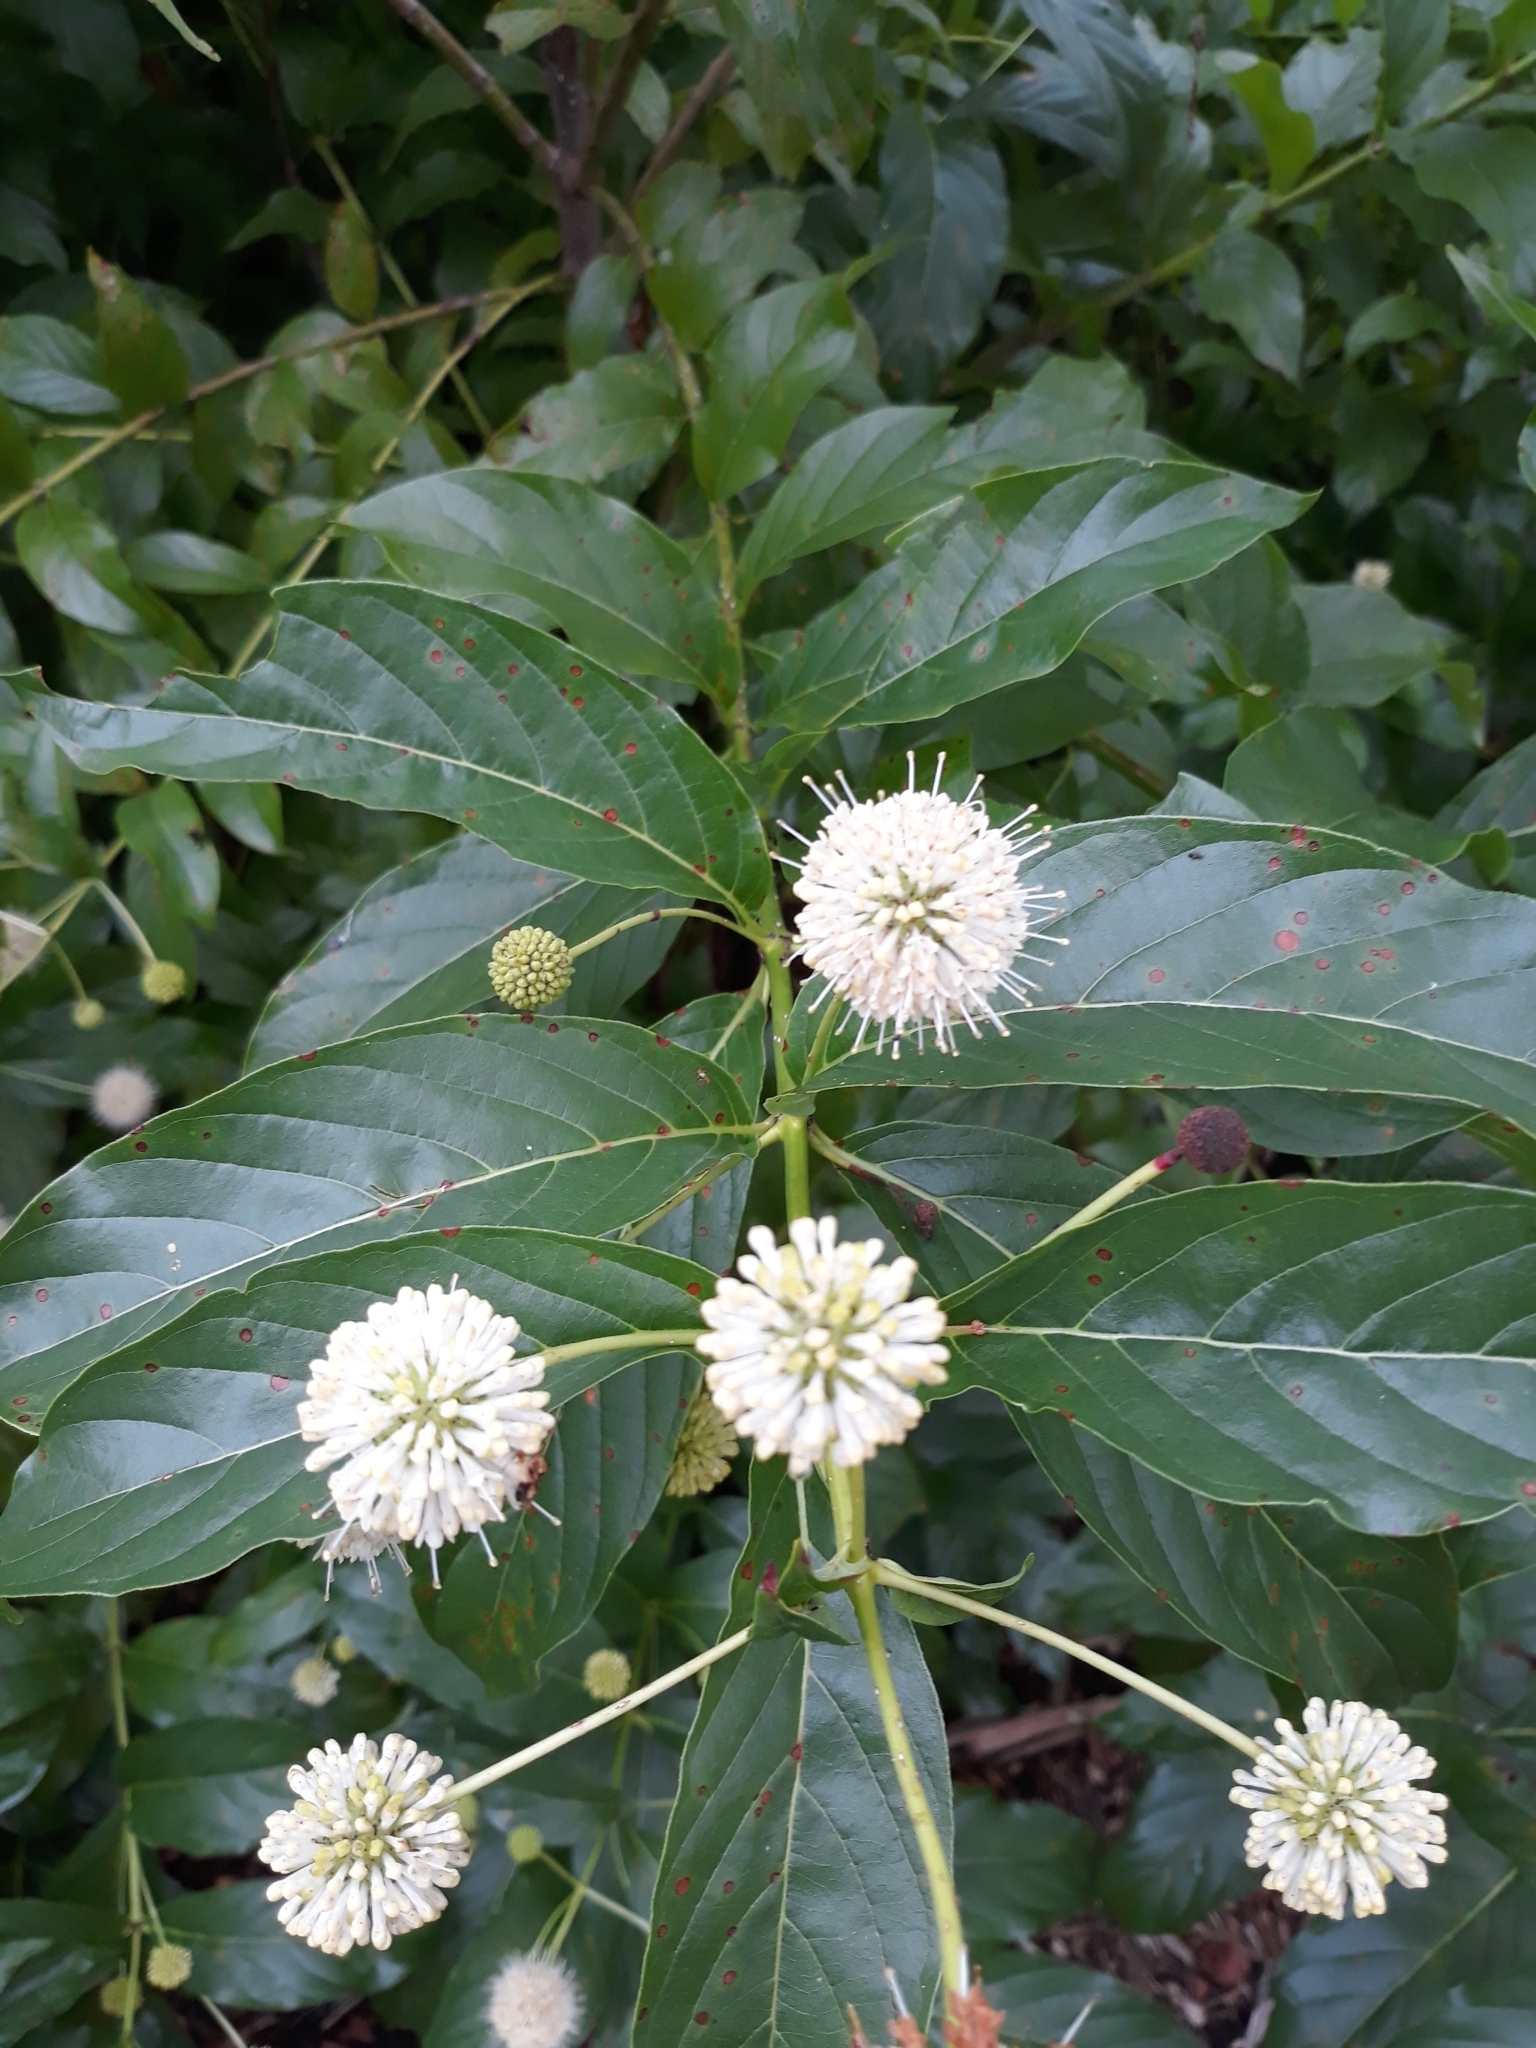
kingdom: Plantae
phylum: Tracheophyta
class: Magnoliopsida
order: Gentianales
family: Rubiaceae
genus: Cephalanthus
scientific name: Cephalanthus occidentalis
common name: Button-willow
